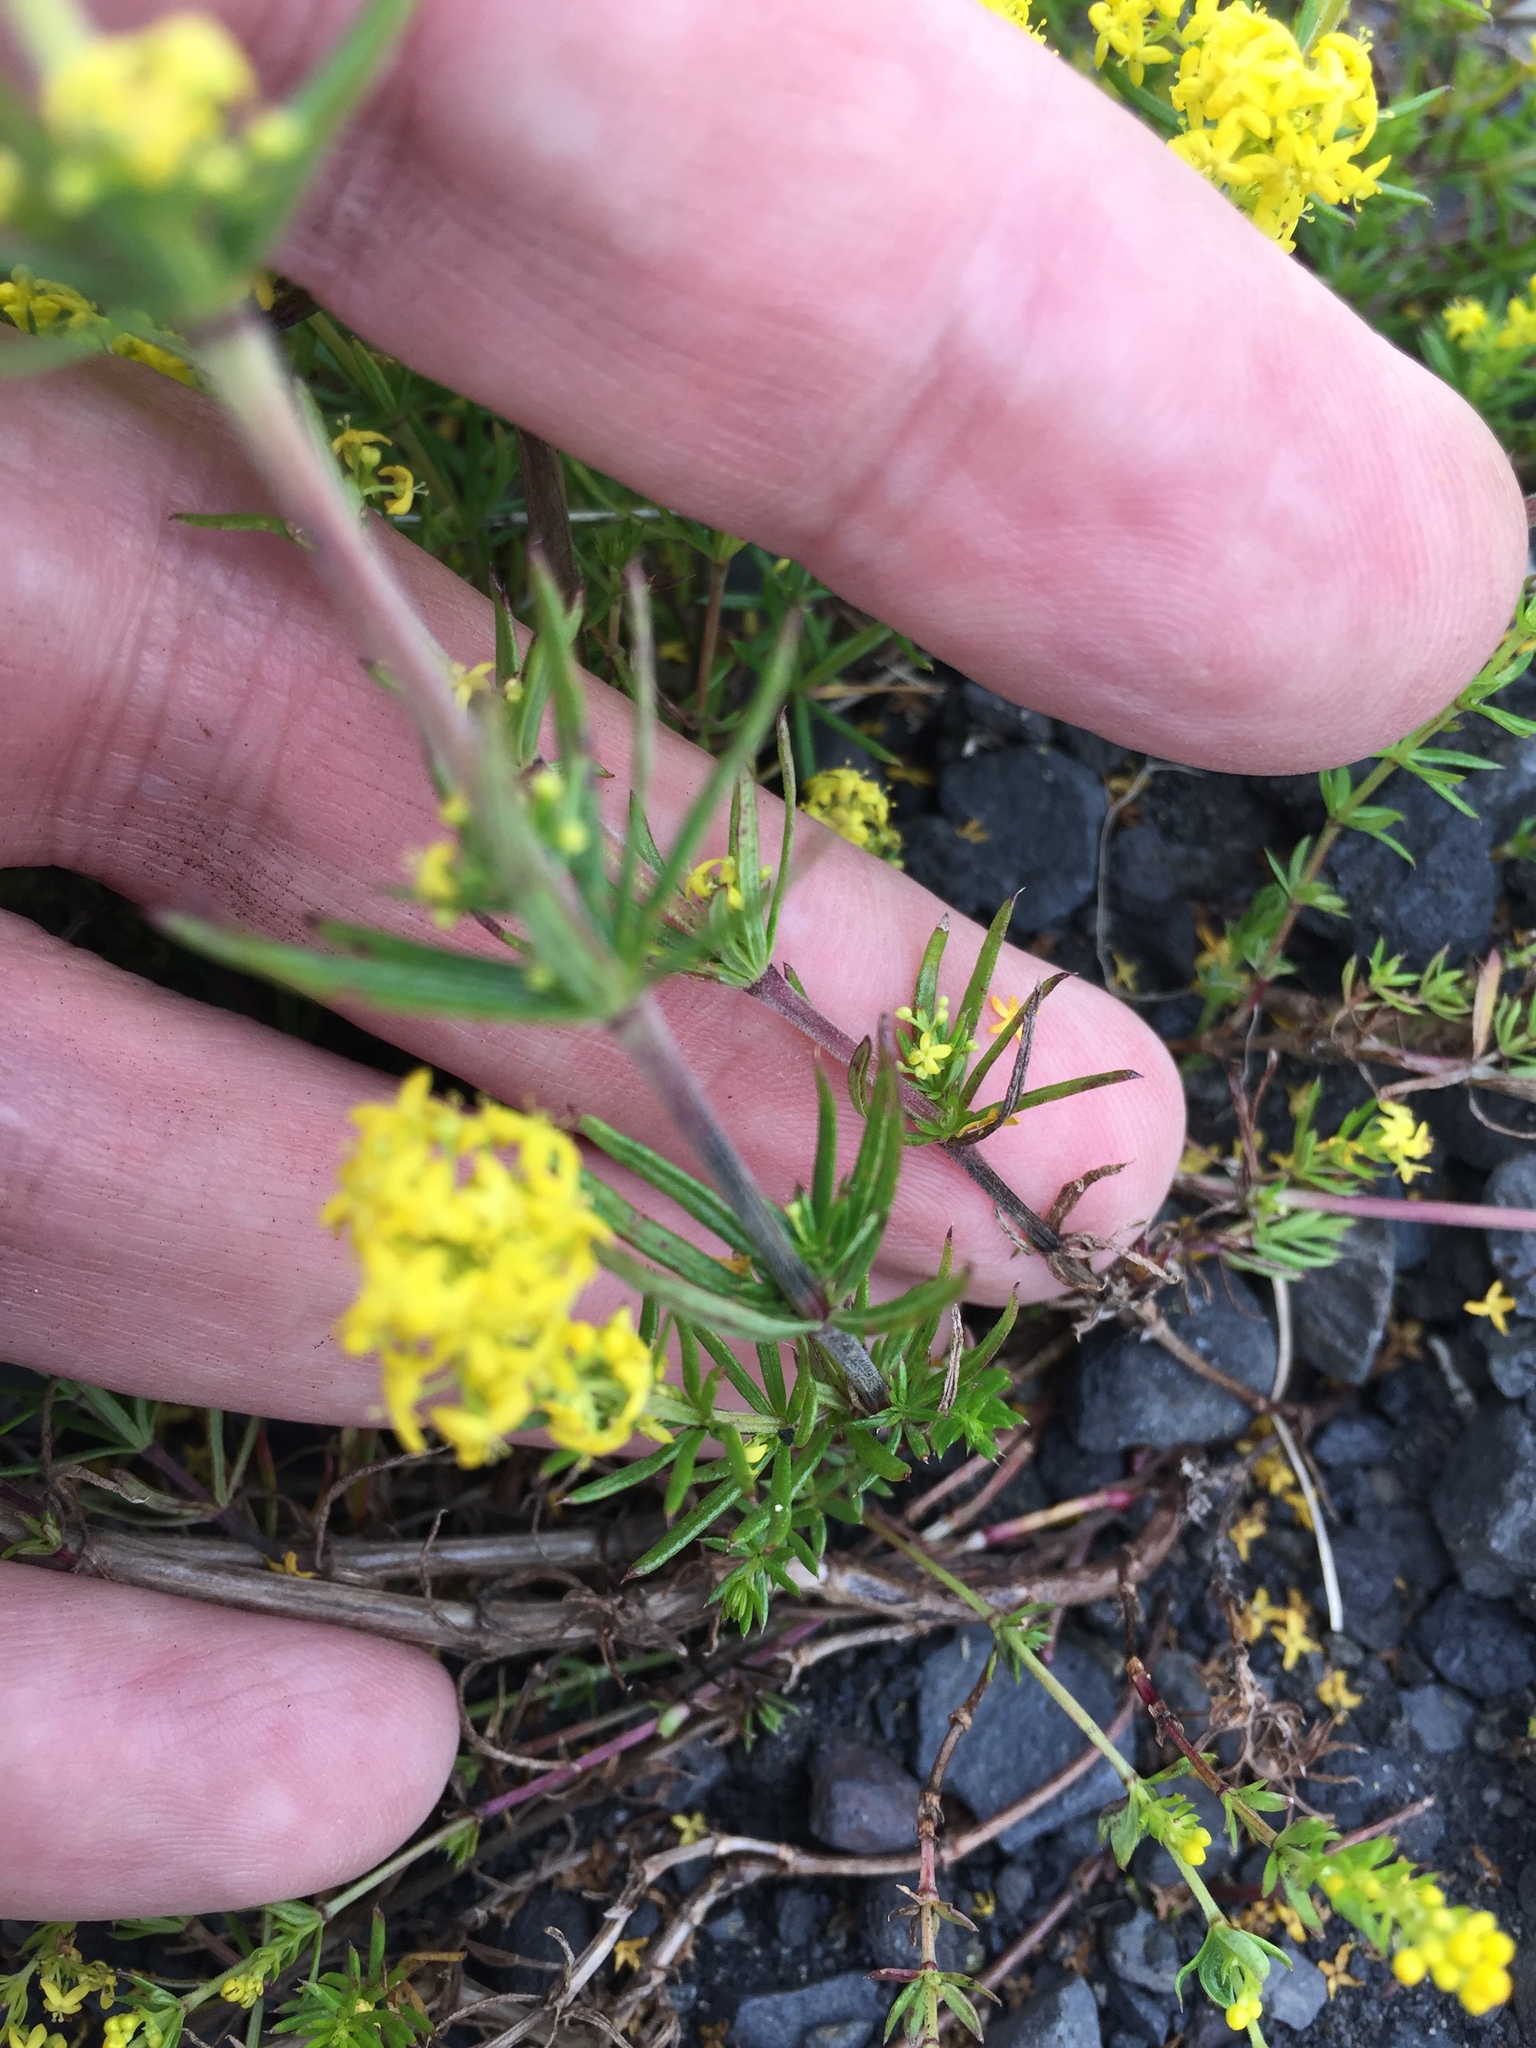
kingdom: Plantae
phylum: Tracheophyta
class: Magnoliopsida
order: Gentianales
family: Rubiaceae
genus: Galium
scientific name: Galium verum
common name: Lady's bedstraw
